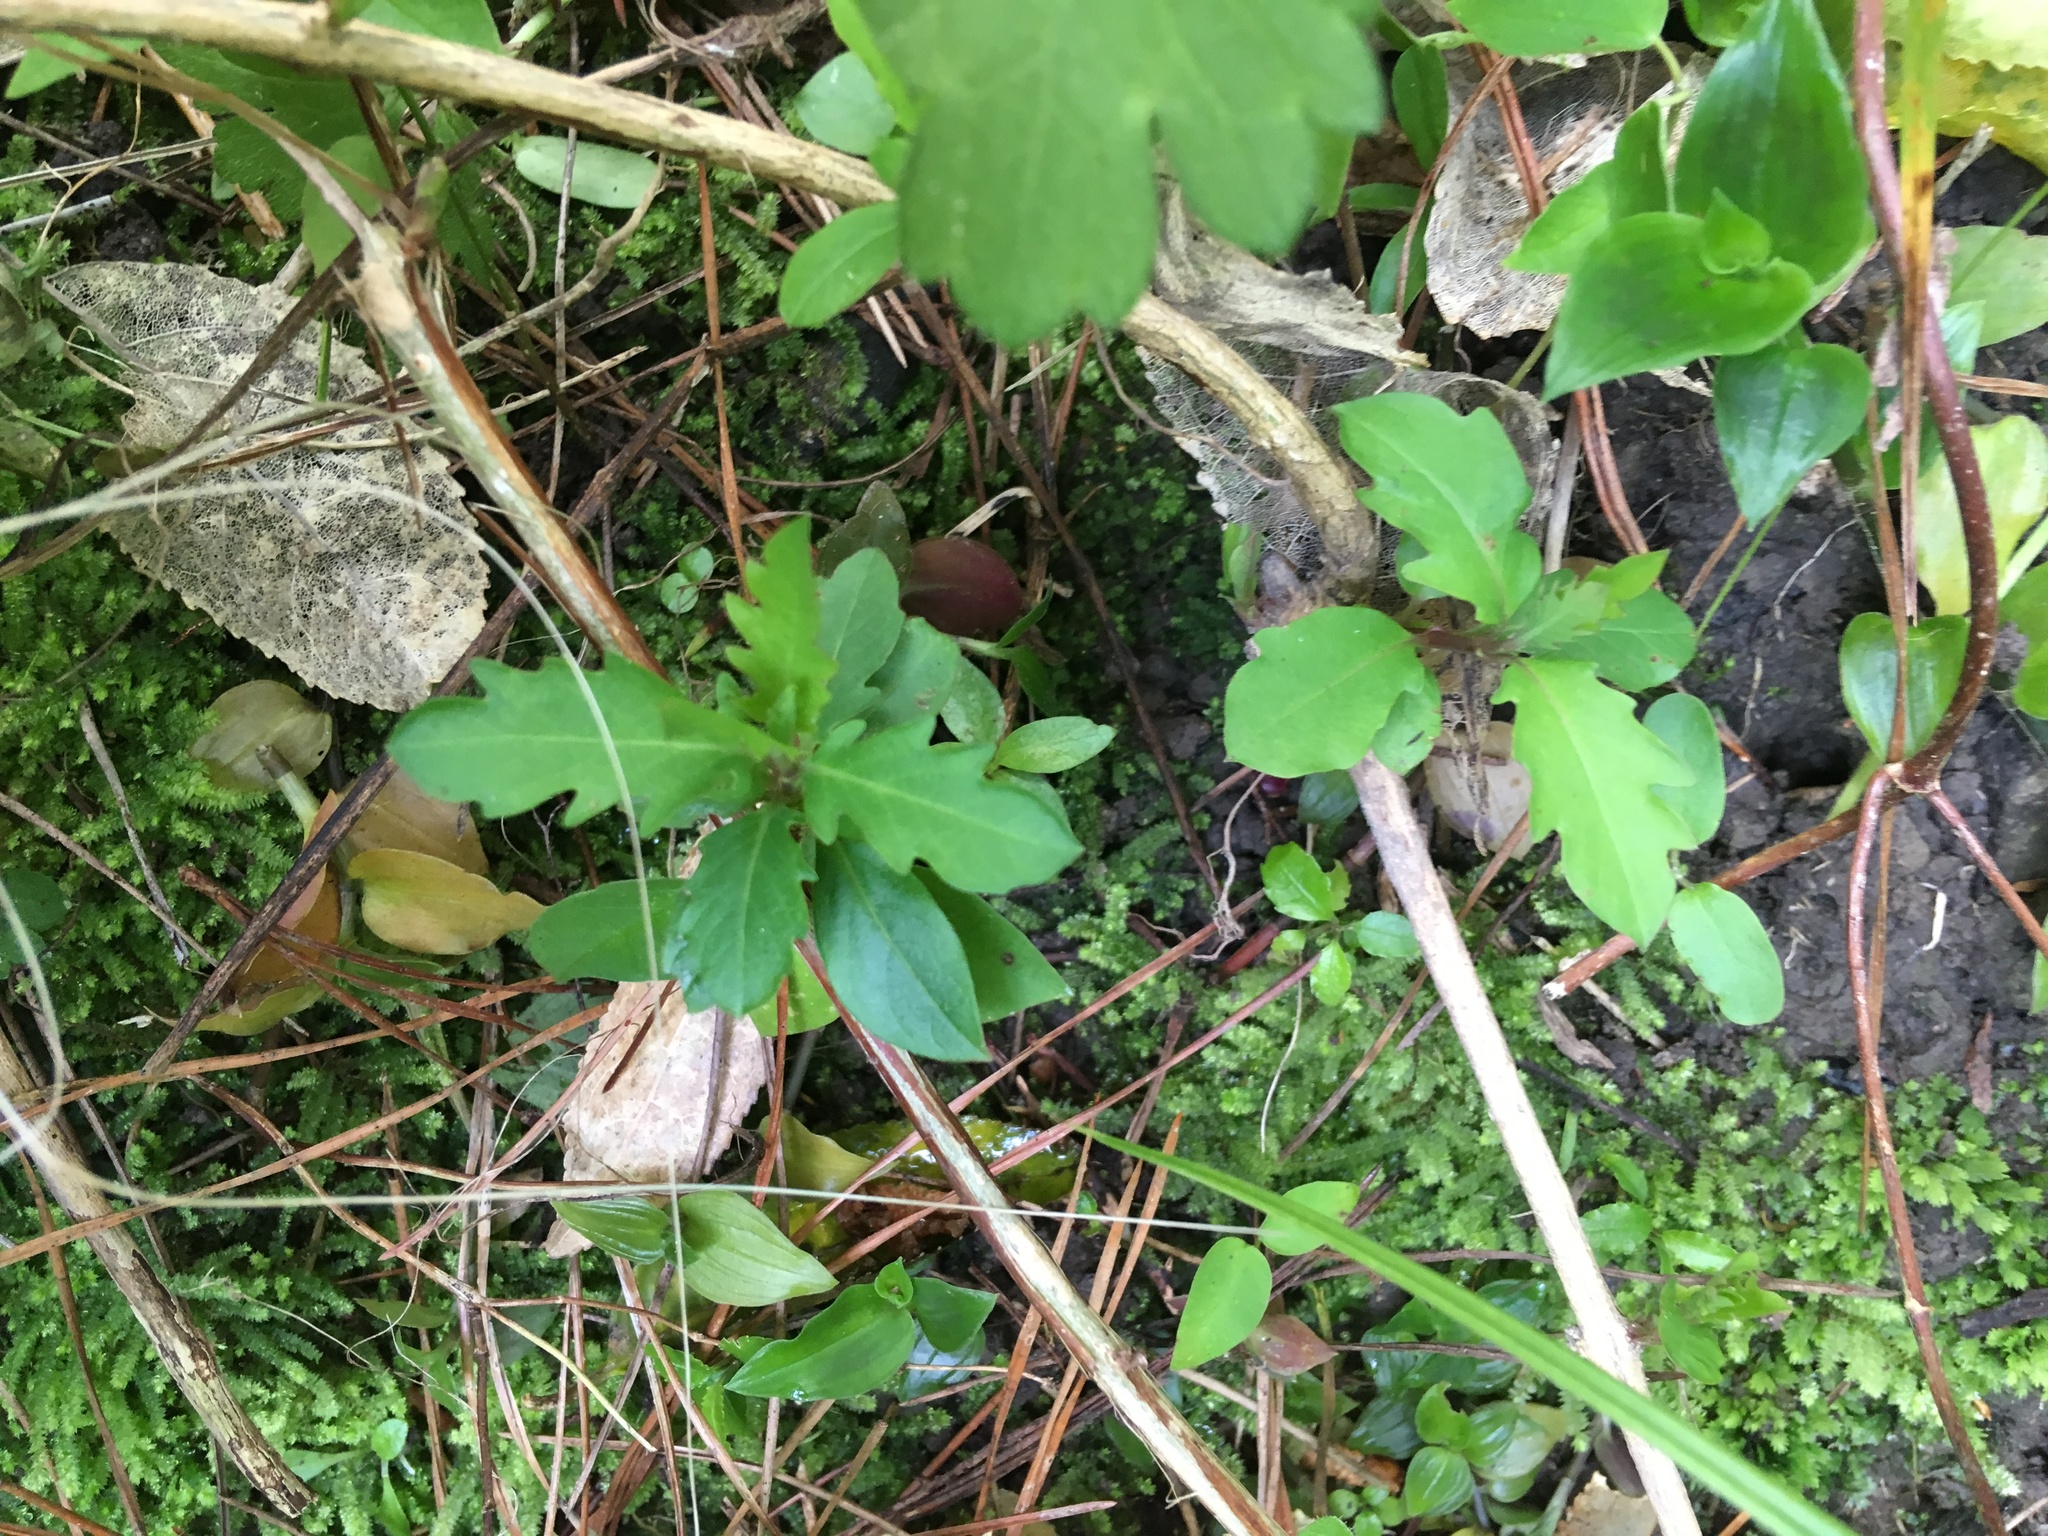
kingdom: Plantae
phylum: Tracheophyta
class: Magnoliopsida
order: Dipsacales
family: Caprifoliaceae
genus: Lonicera
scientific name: Lonicera japonica
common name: Japanese honeysuckle
